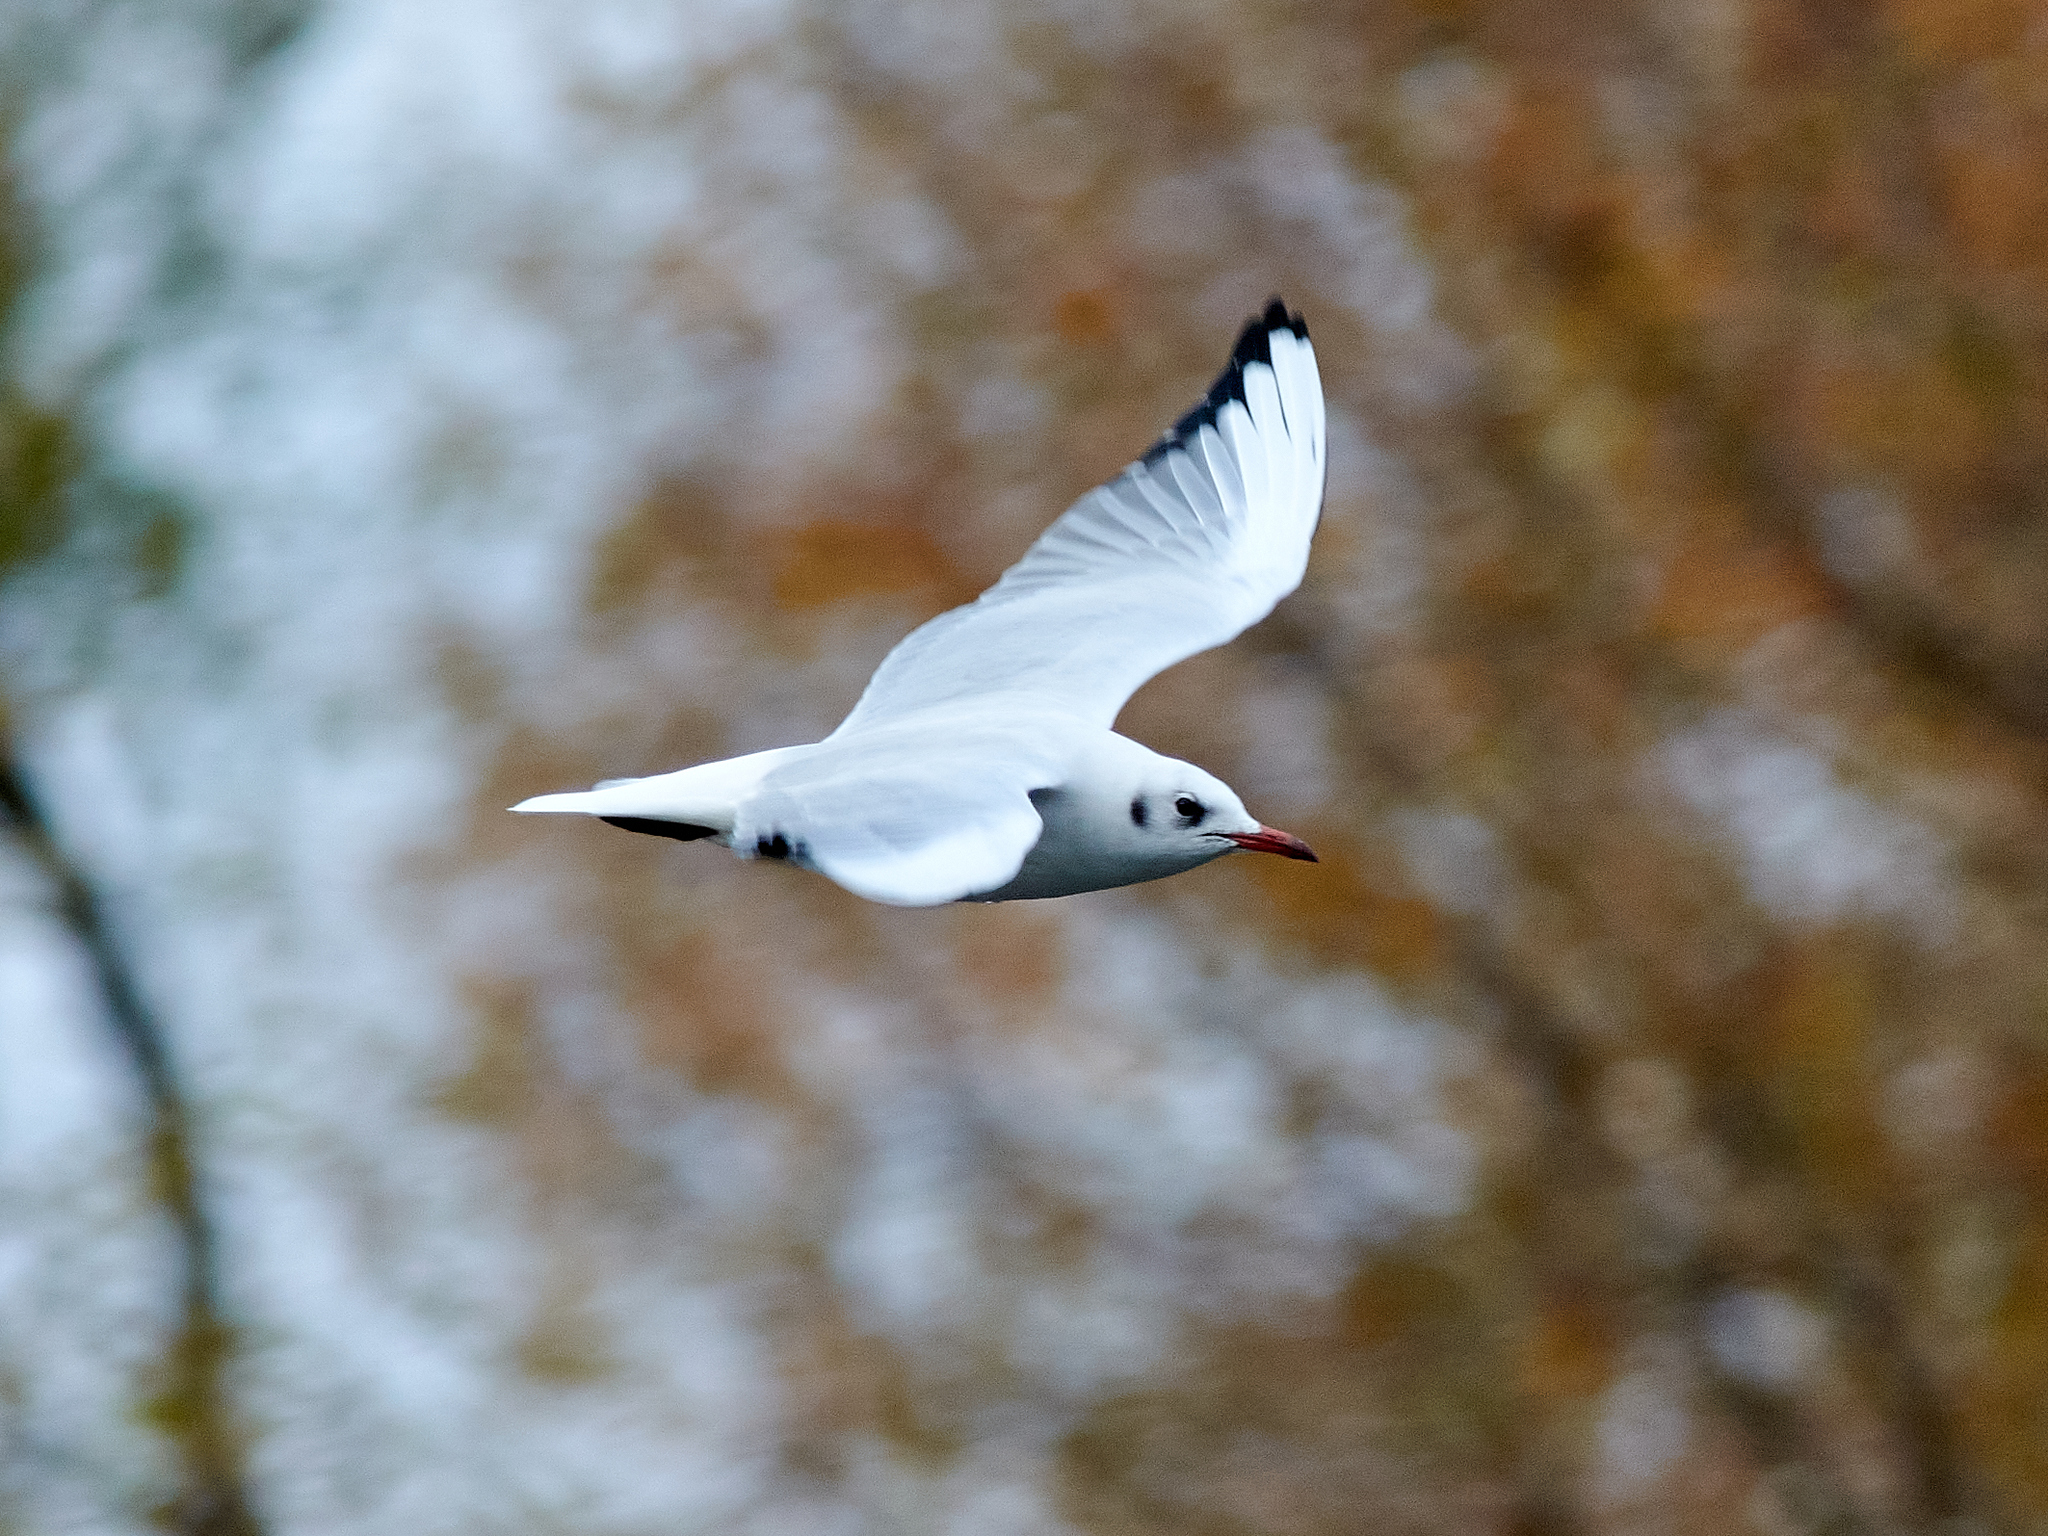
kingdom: Animalia
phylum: Chordata
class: Aves
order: Charadriiformes
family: Laridae
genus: Chroicocephalus
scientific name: Chroicocephalus ridibundus
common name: Black-headed gull
